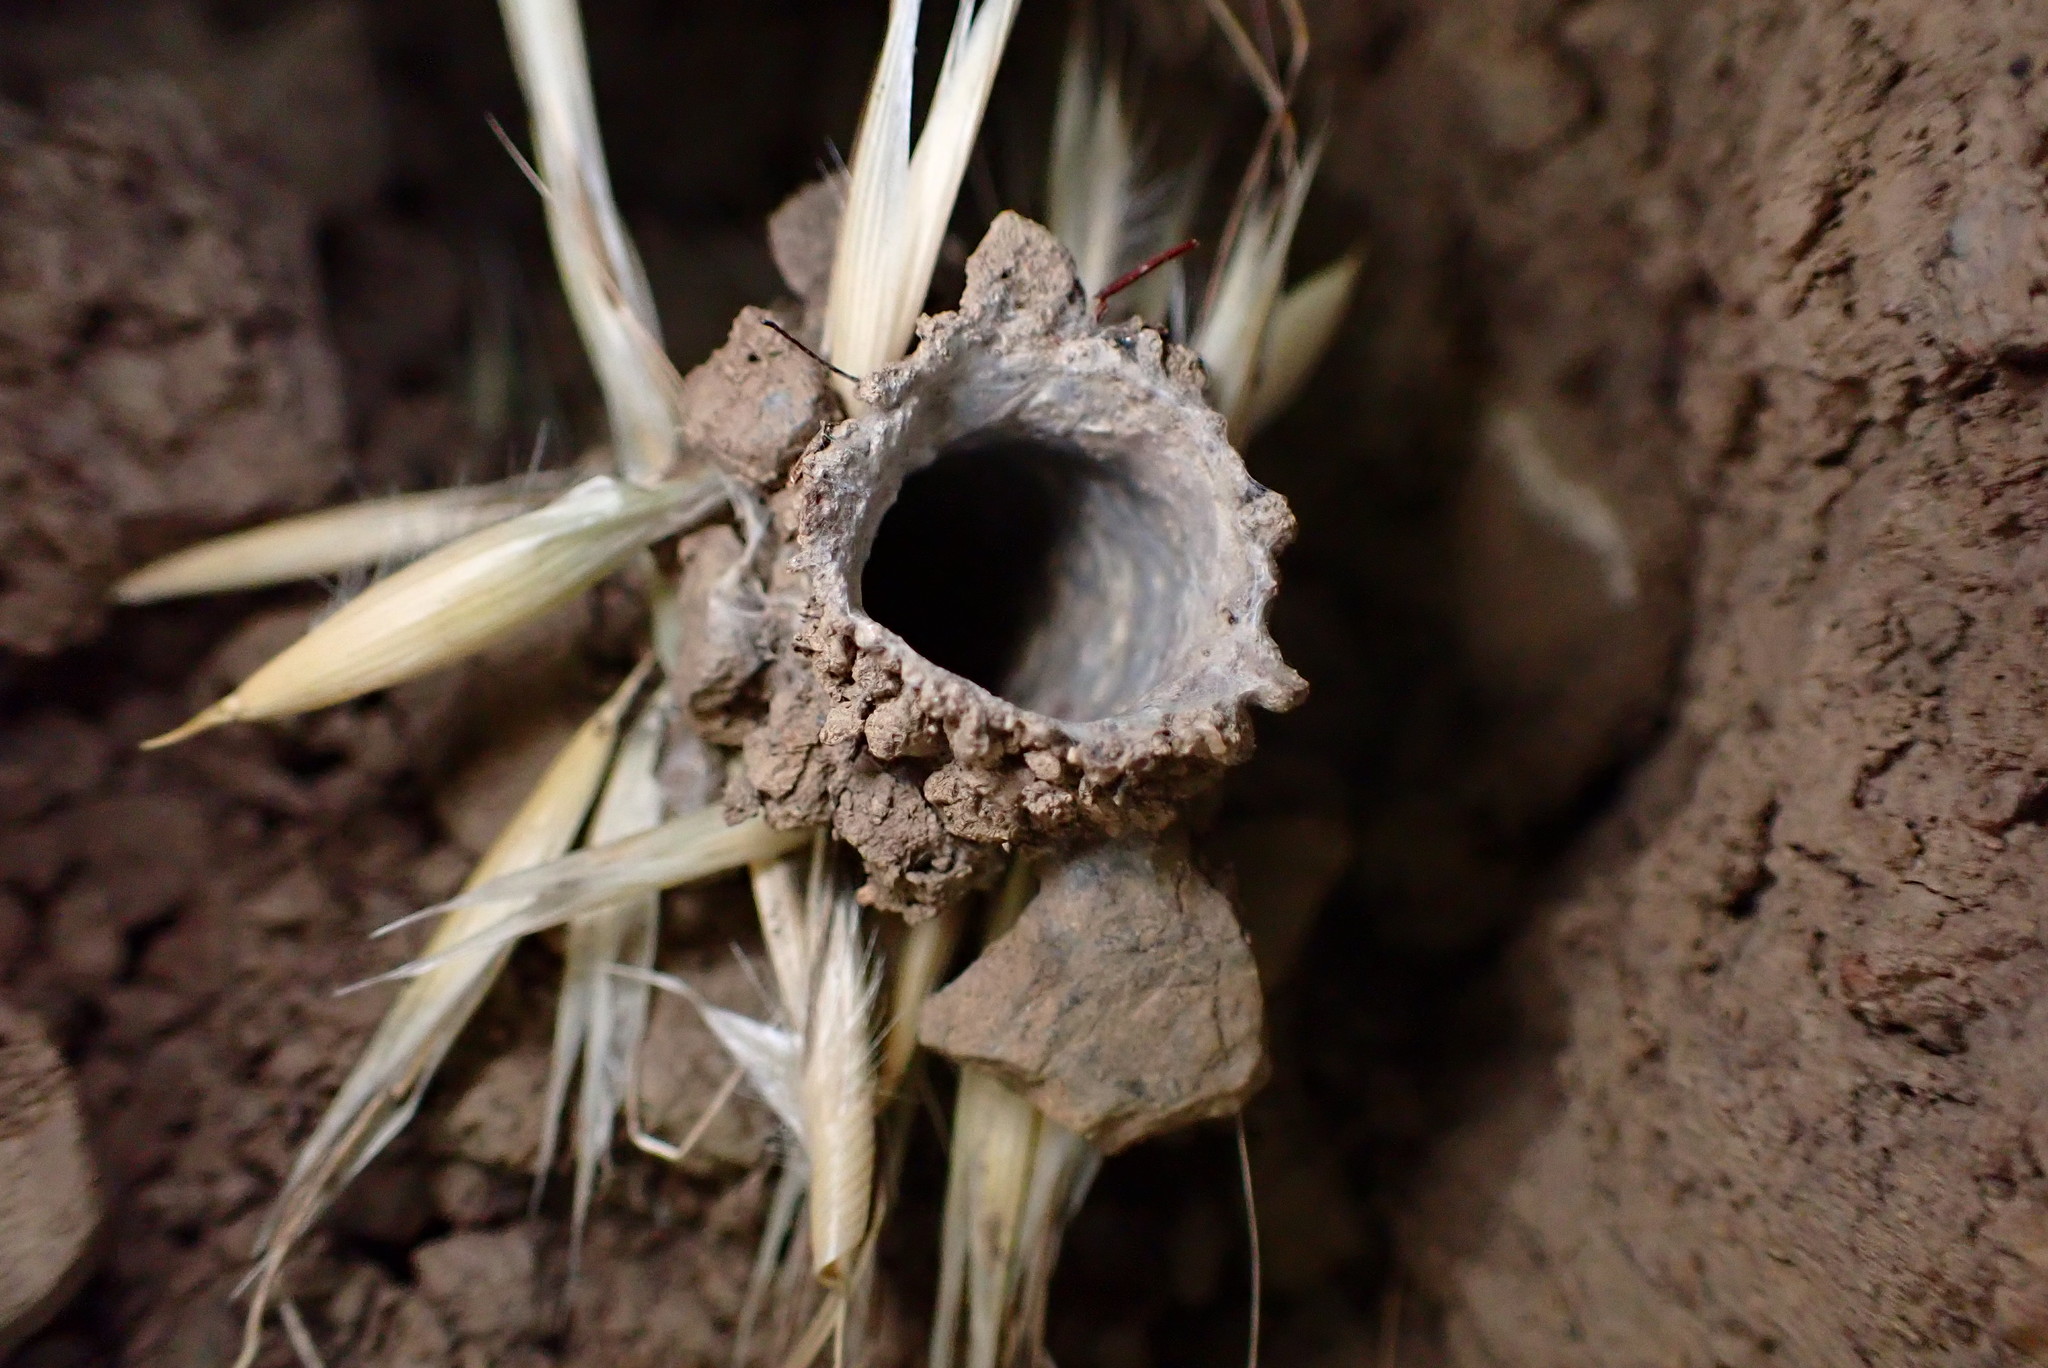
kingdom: Animalia
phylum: Arthropoda
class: Arachnida
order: Araneae
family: Antrodiaetidae
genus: Atypoides
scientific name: Atypoides riversi
